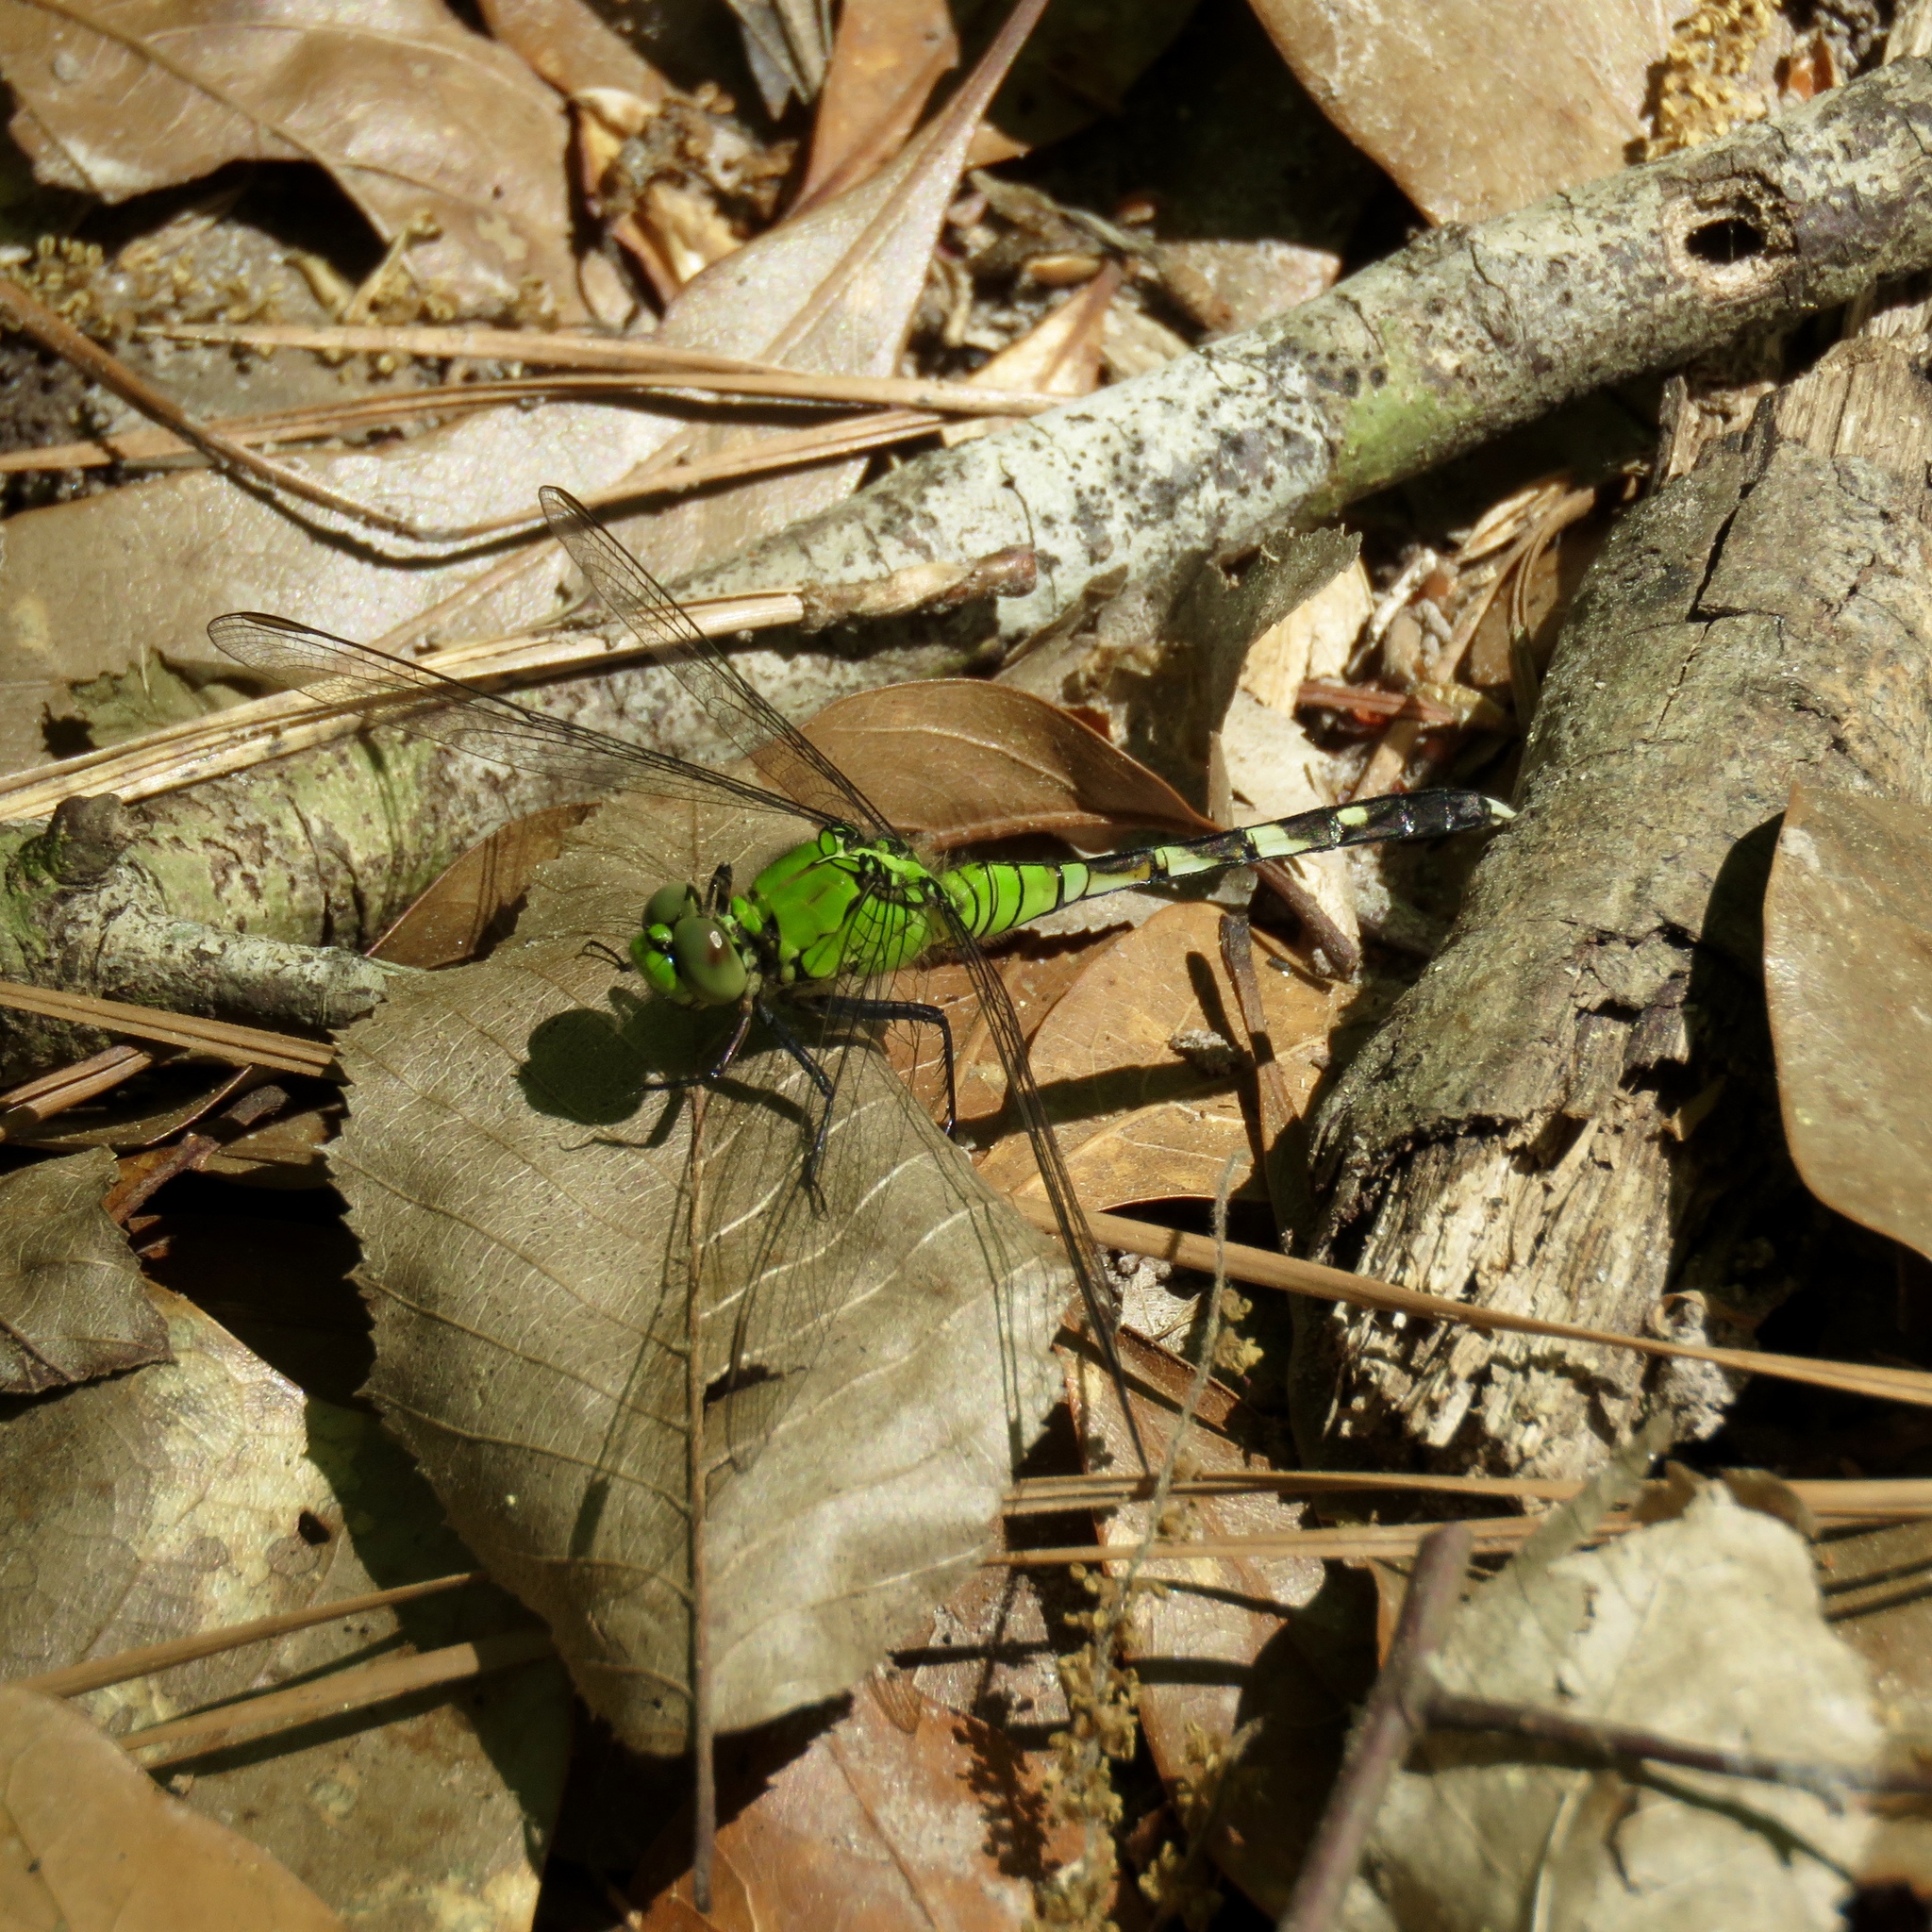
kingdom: Animalia
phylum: Arthropoda
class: Insecta
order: Odonata
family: Libellulidae
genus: Erythemis
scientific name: Erythemis simplicicollis
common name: Eastern pondhawk
